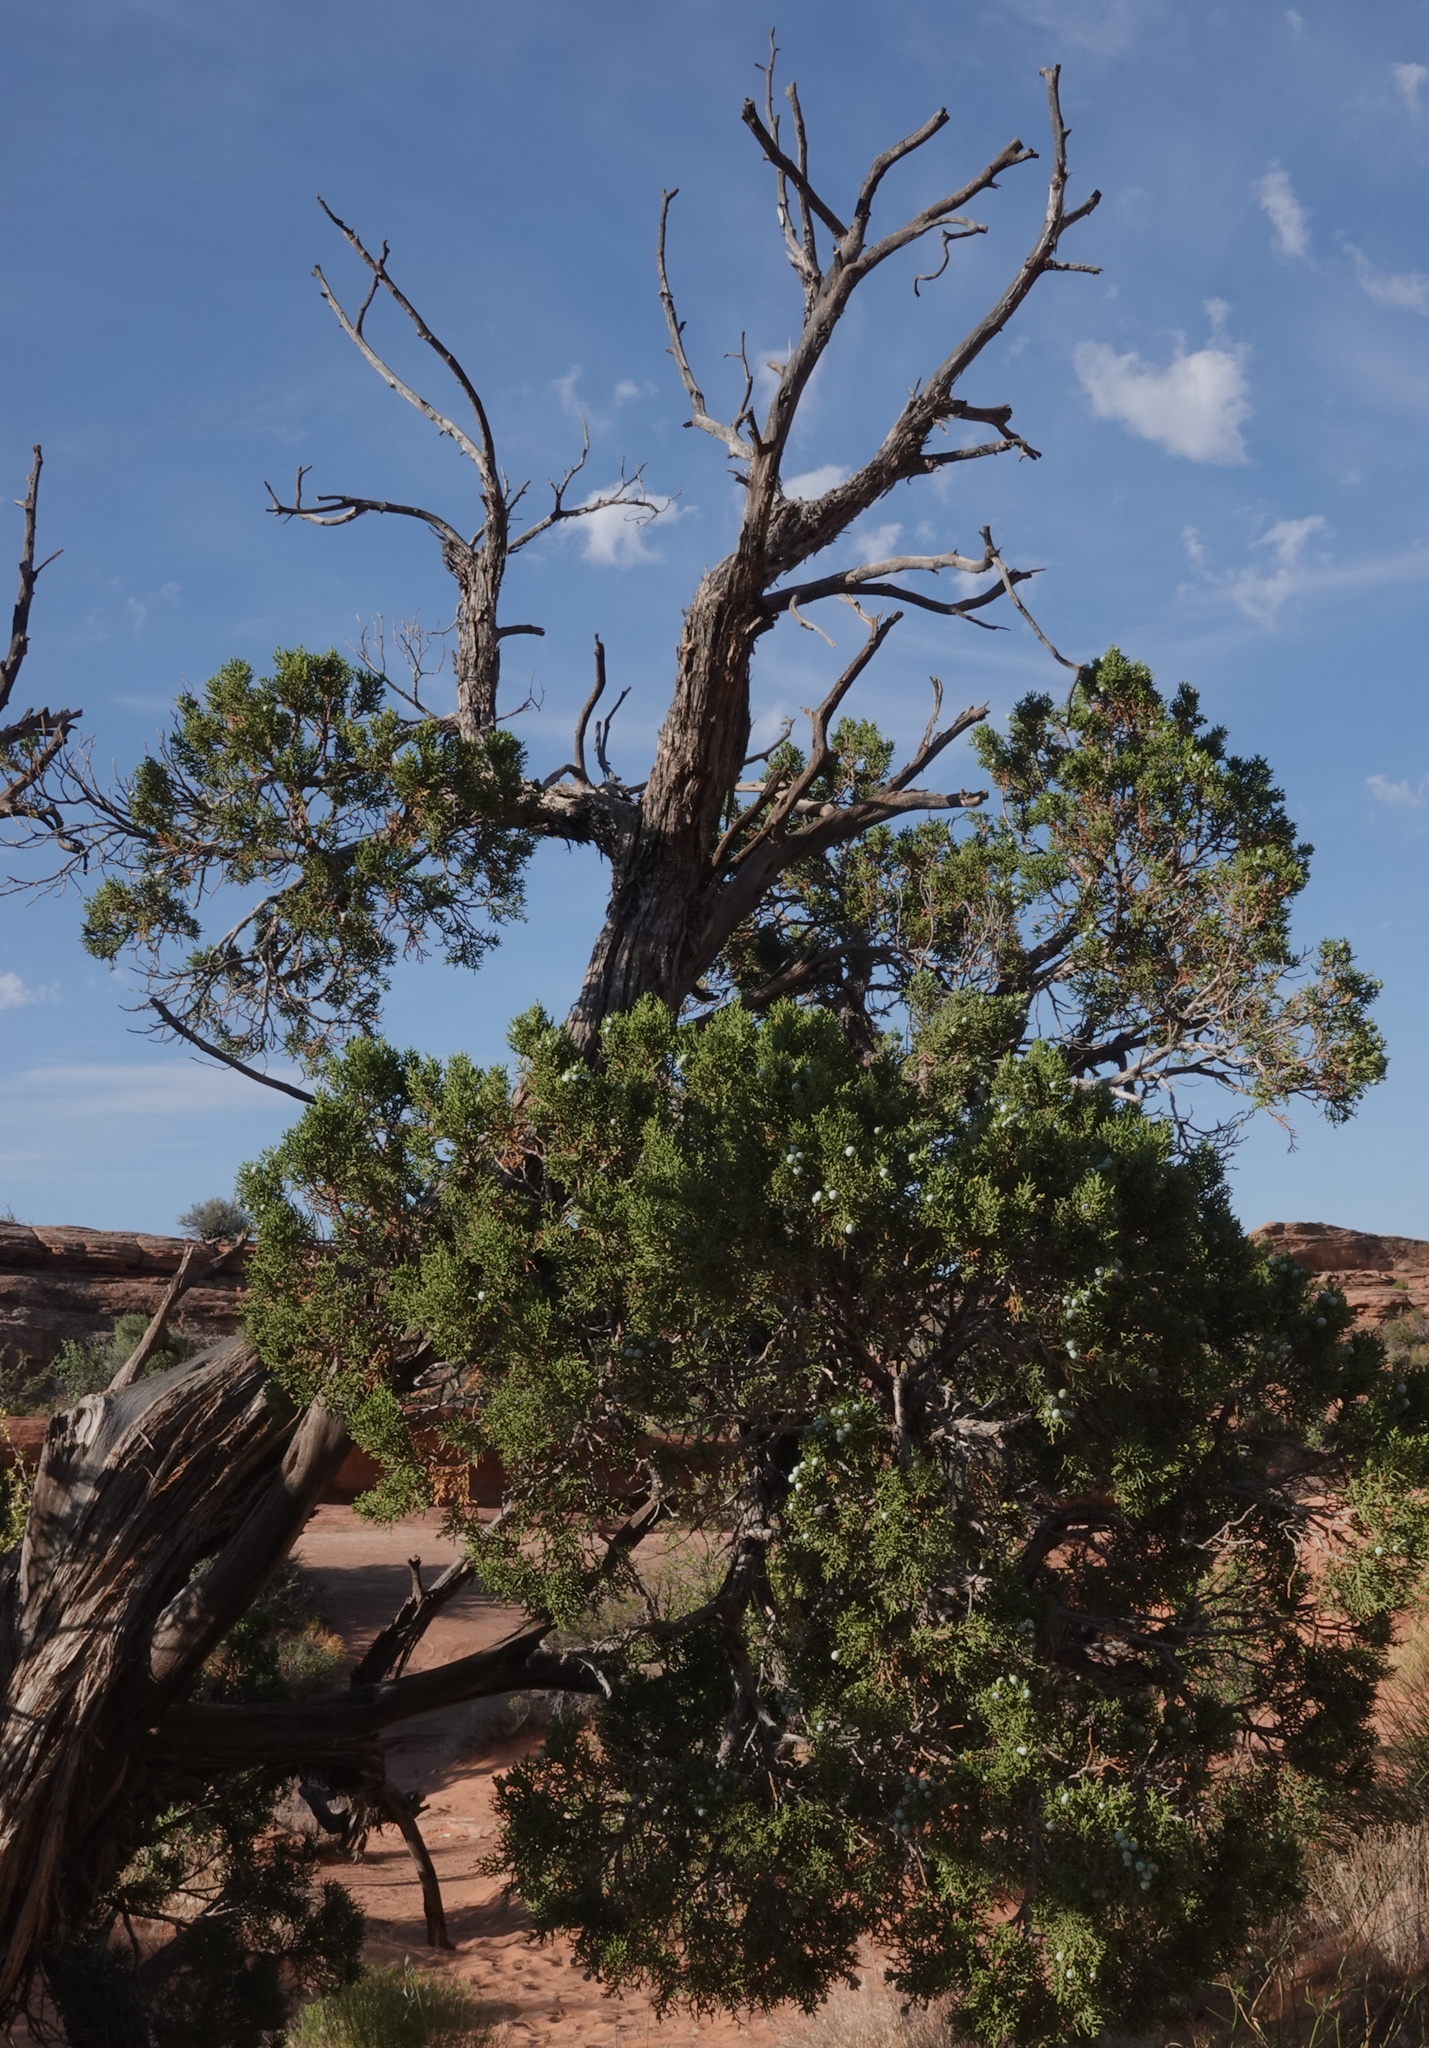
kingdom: Plantae
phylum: Tracheophyta
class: Pinopsida
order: Pinales
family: Cupressaceae
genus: Juniperus
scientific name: Juniperus osteosperma
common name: Utah juniper
